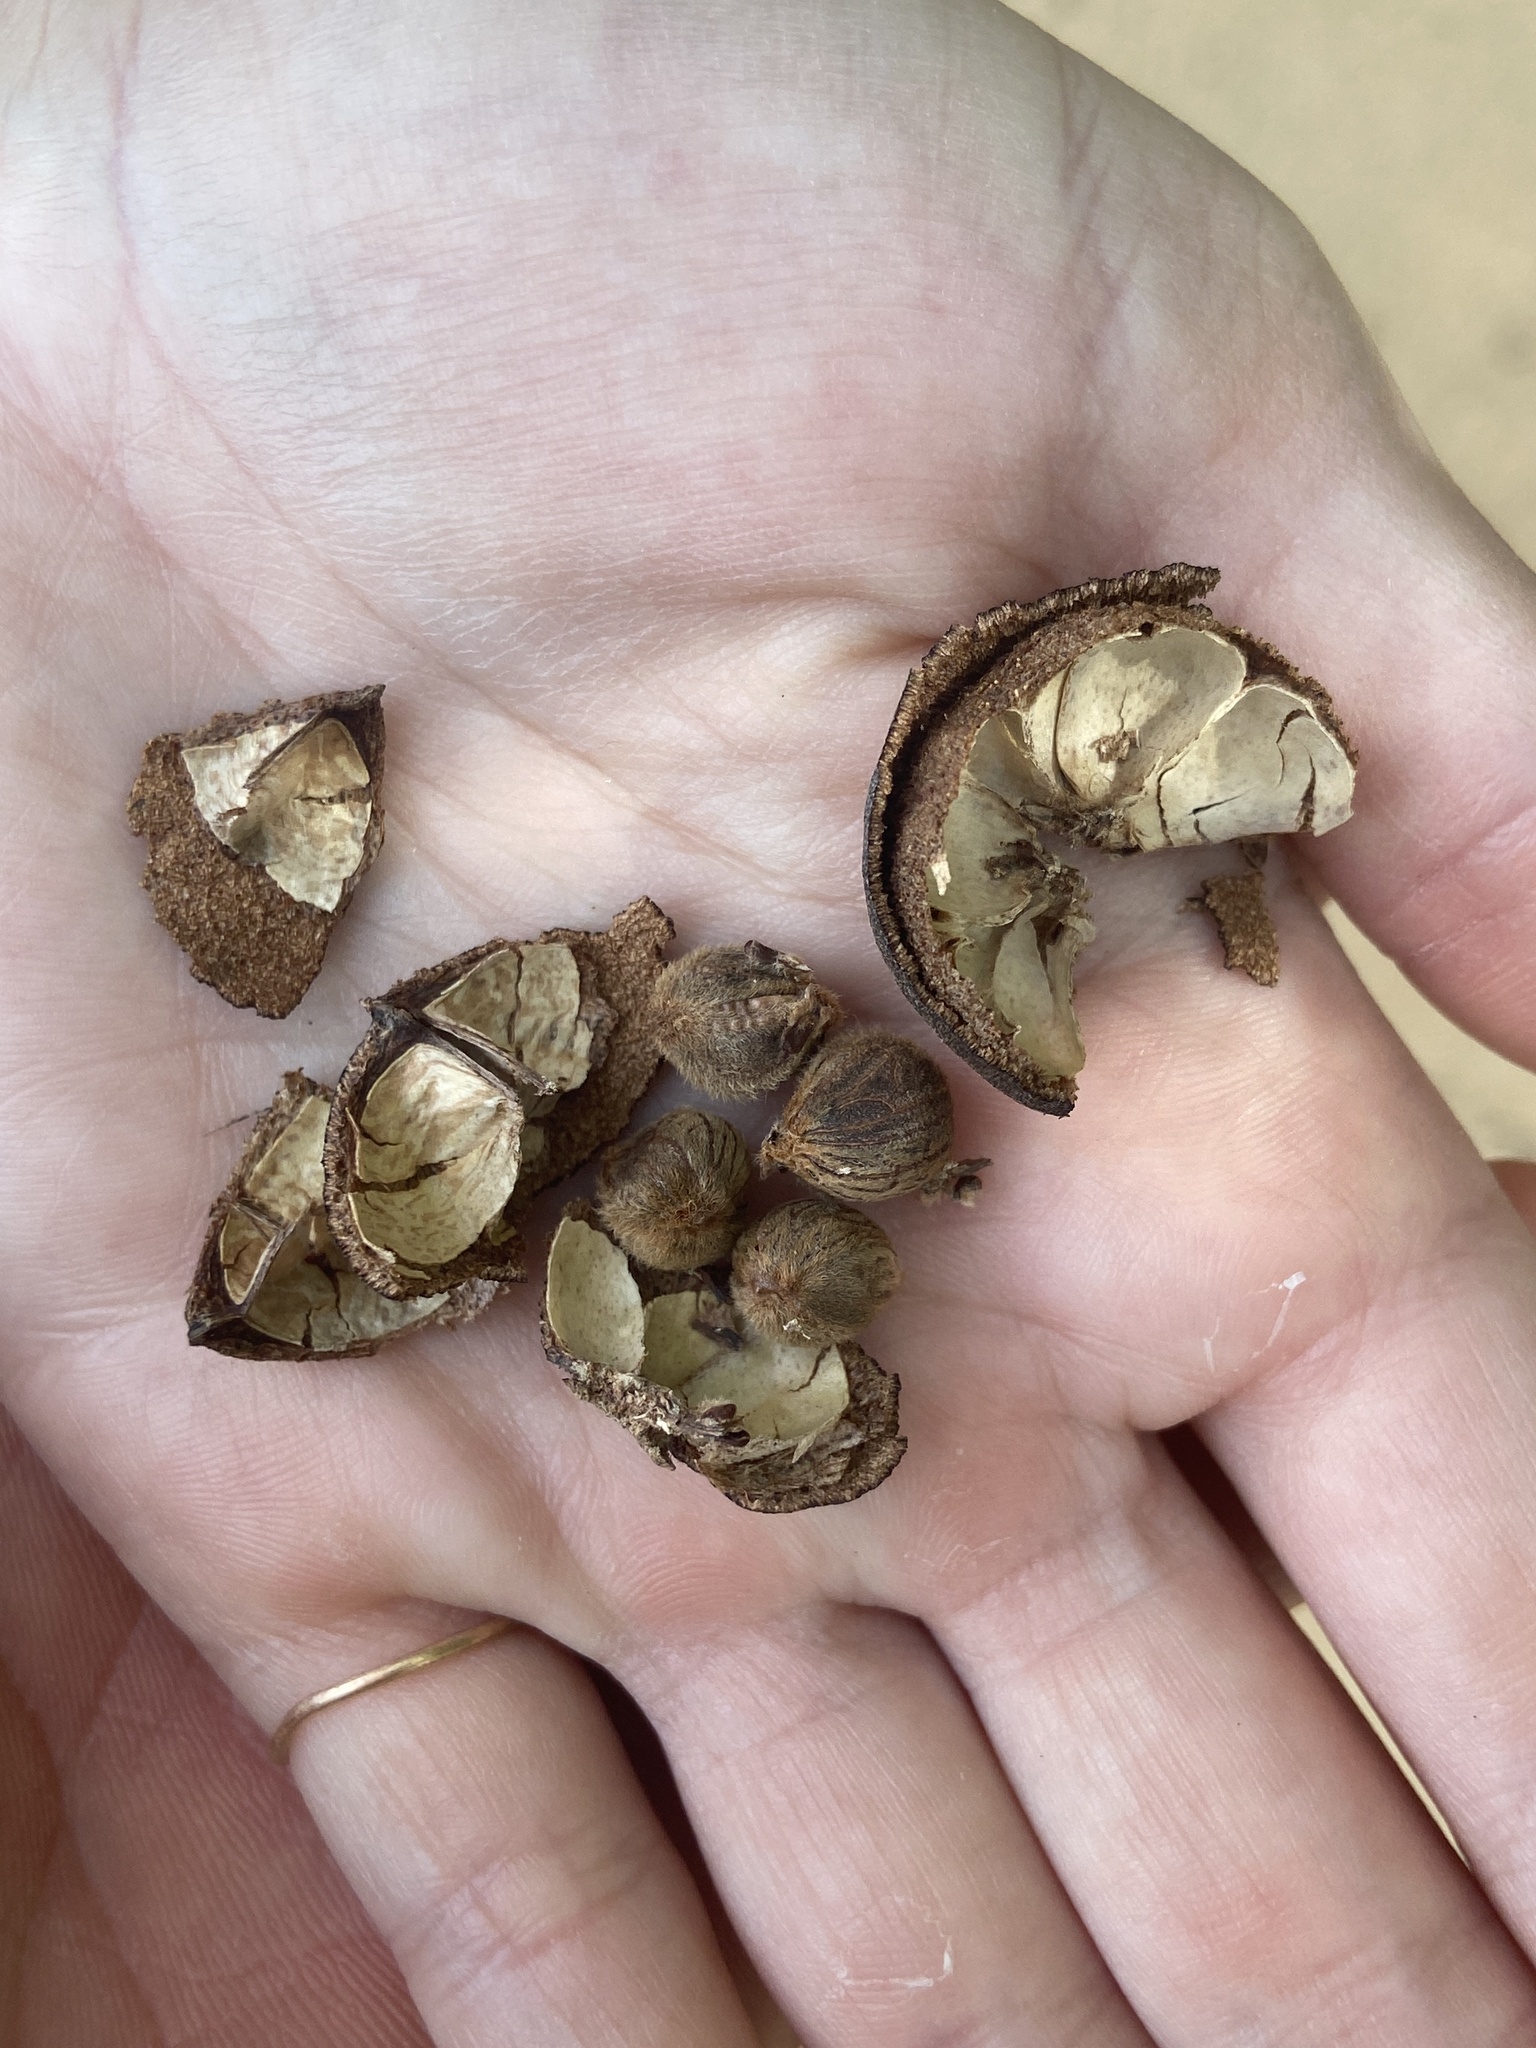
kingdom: Plantae
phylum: Tracheophyta
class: Magnoliopsida
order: Malvales
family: Malvaceae
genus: Thespesia
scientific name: Thespesia populnea
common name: Seaside mahoe
